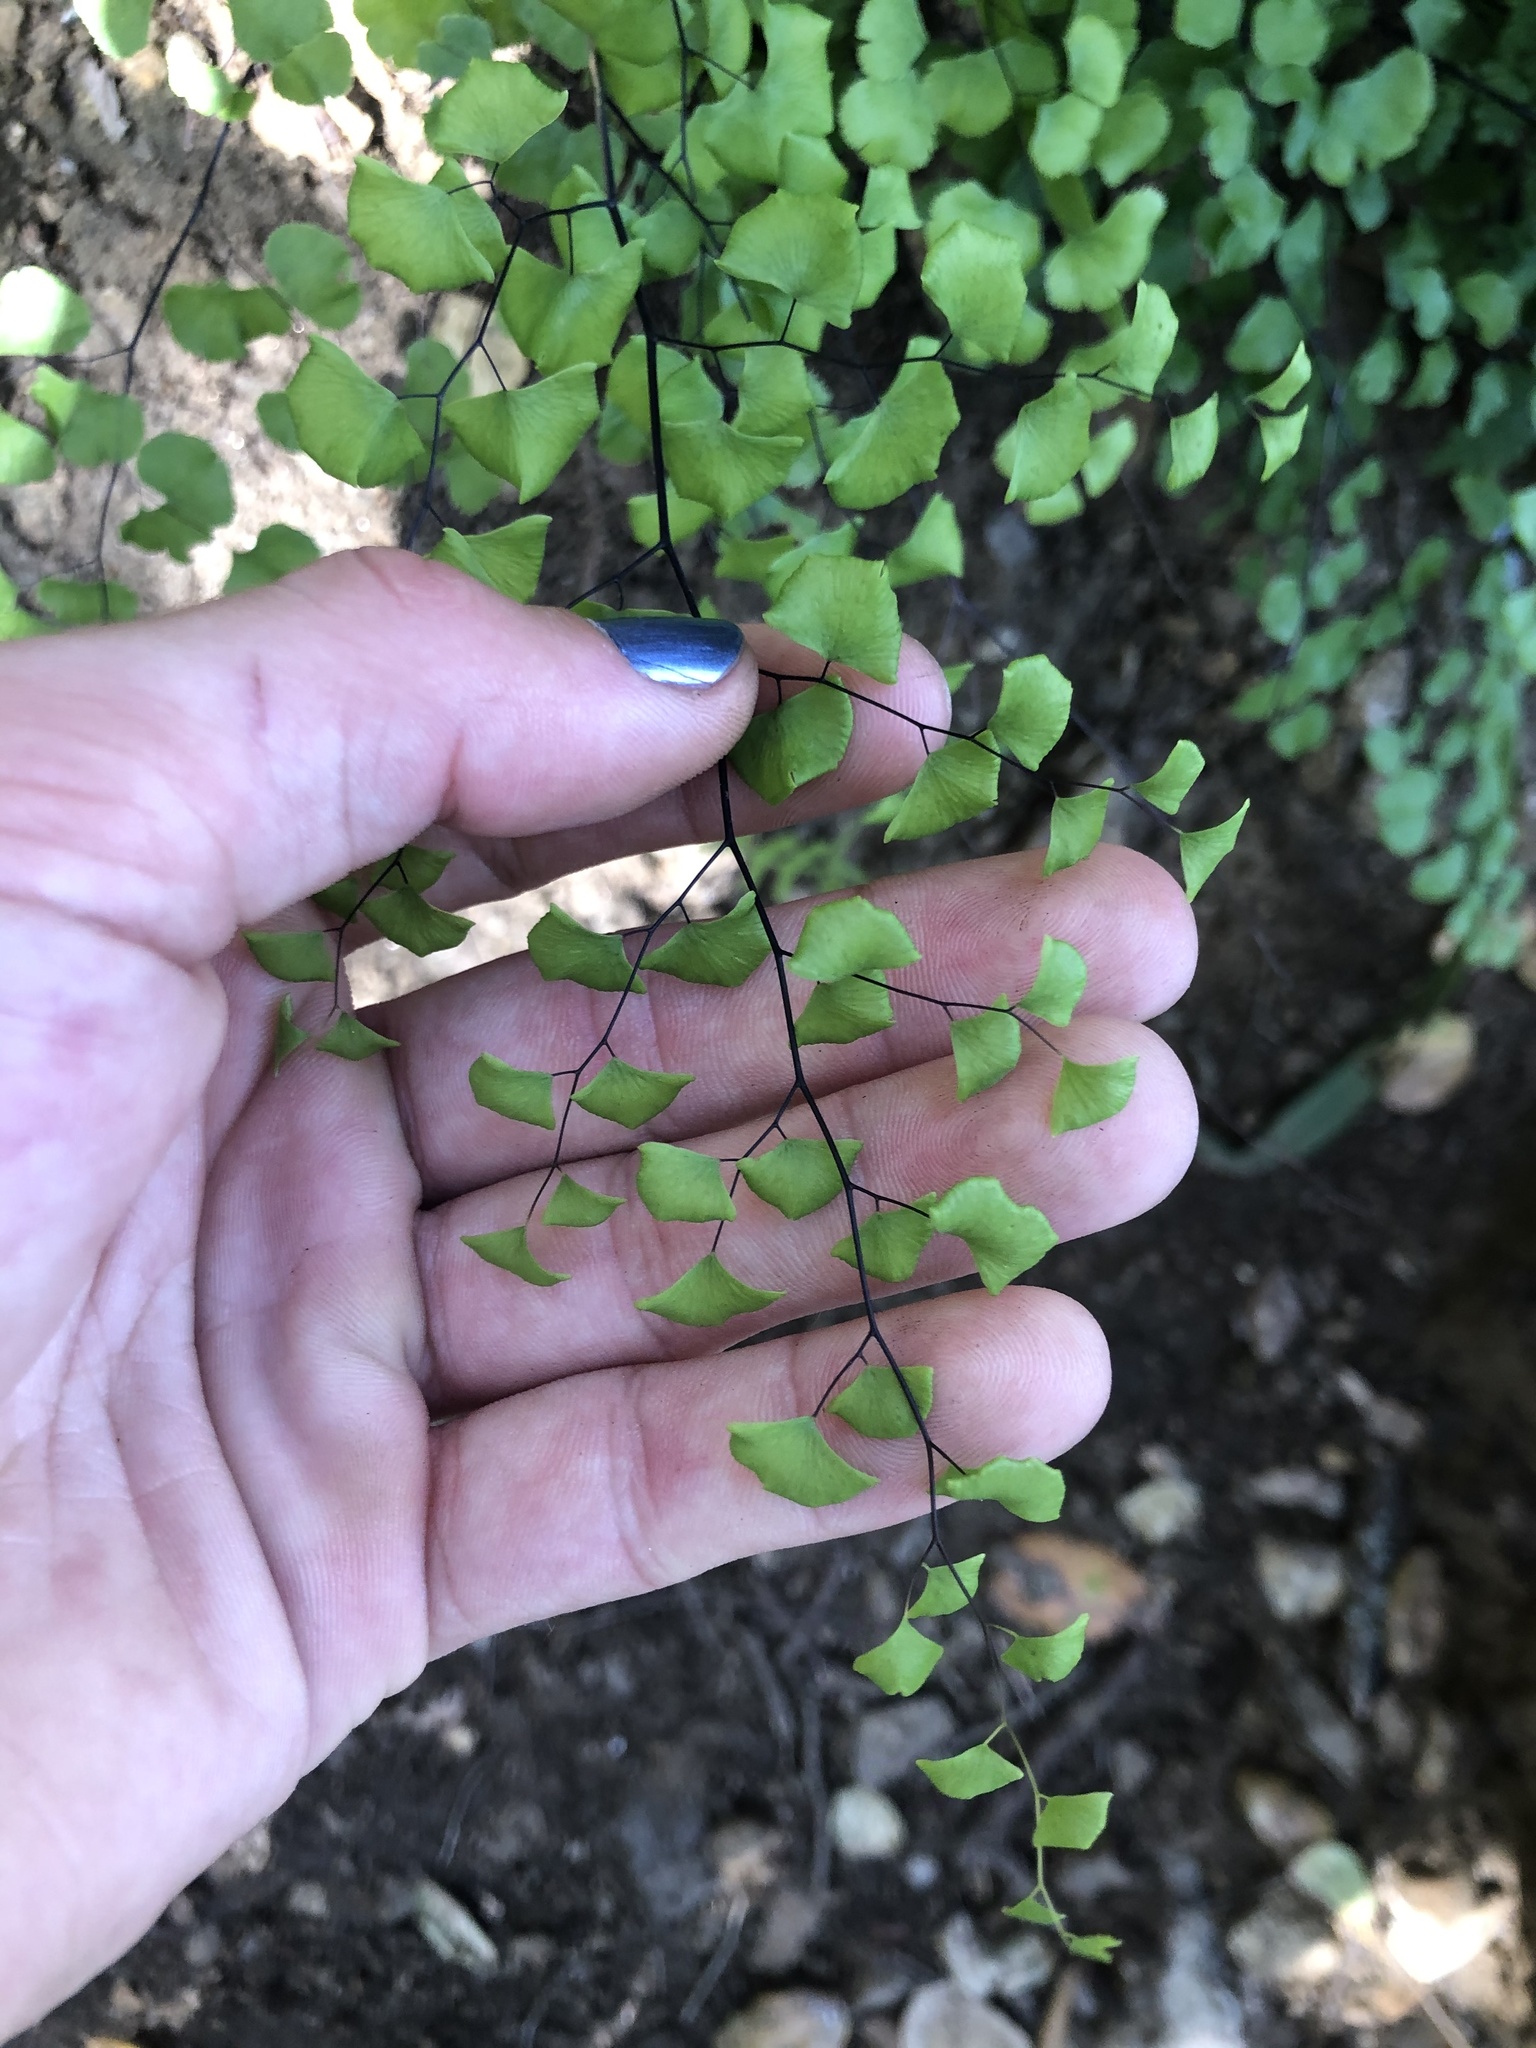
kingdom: Plantae
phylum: Tracheophyta
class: Polypodiopsida
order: Polypodiales
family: Pteridaceae
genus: Adiantum
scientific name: Adiantum jordanii
